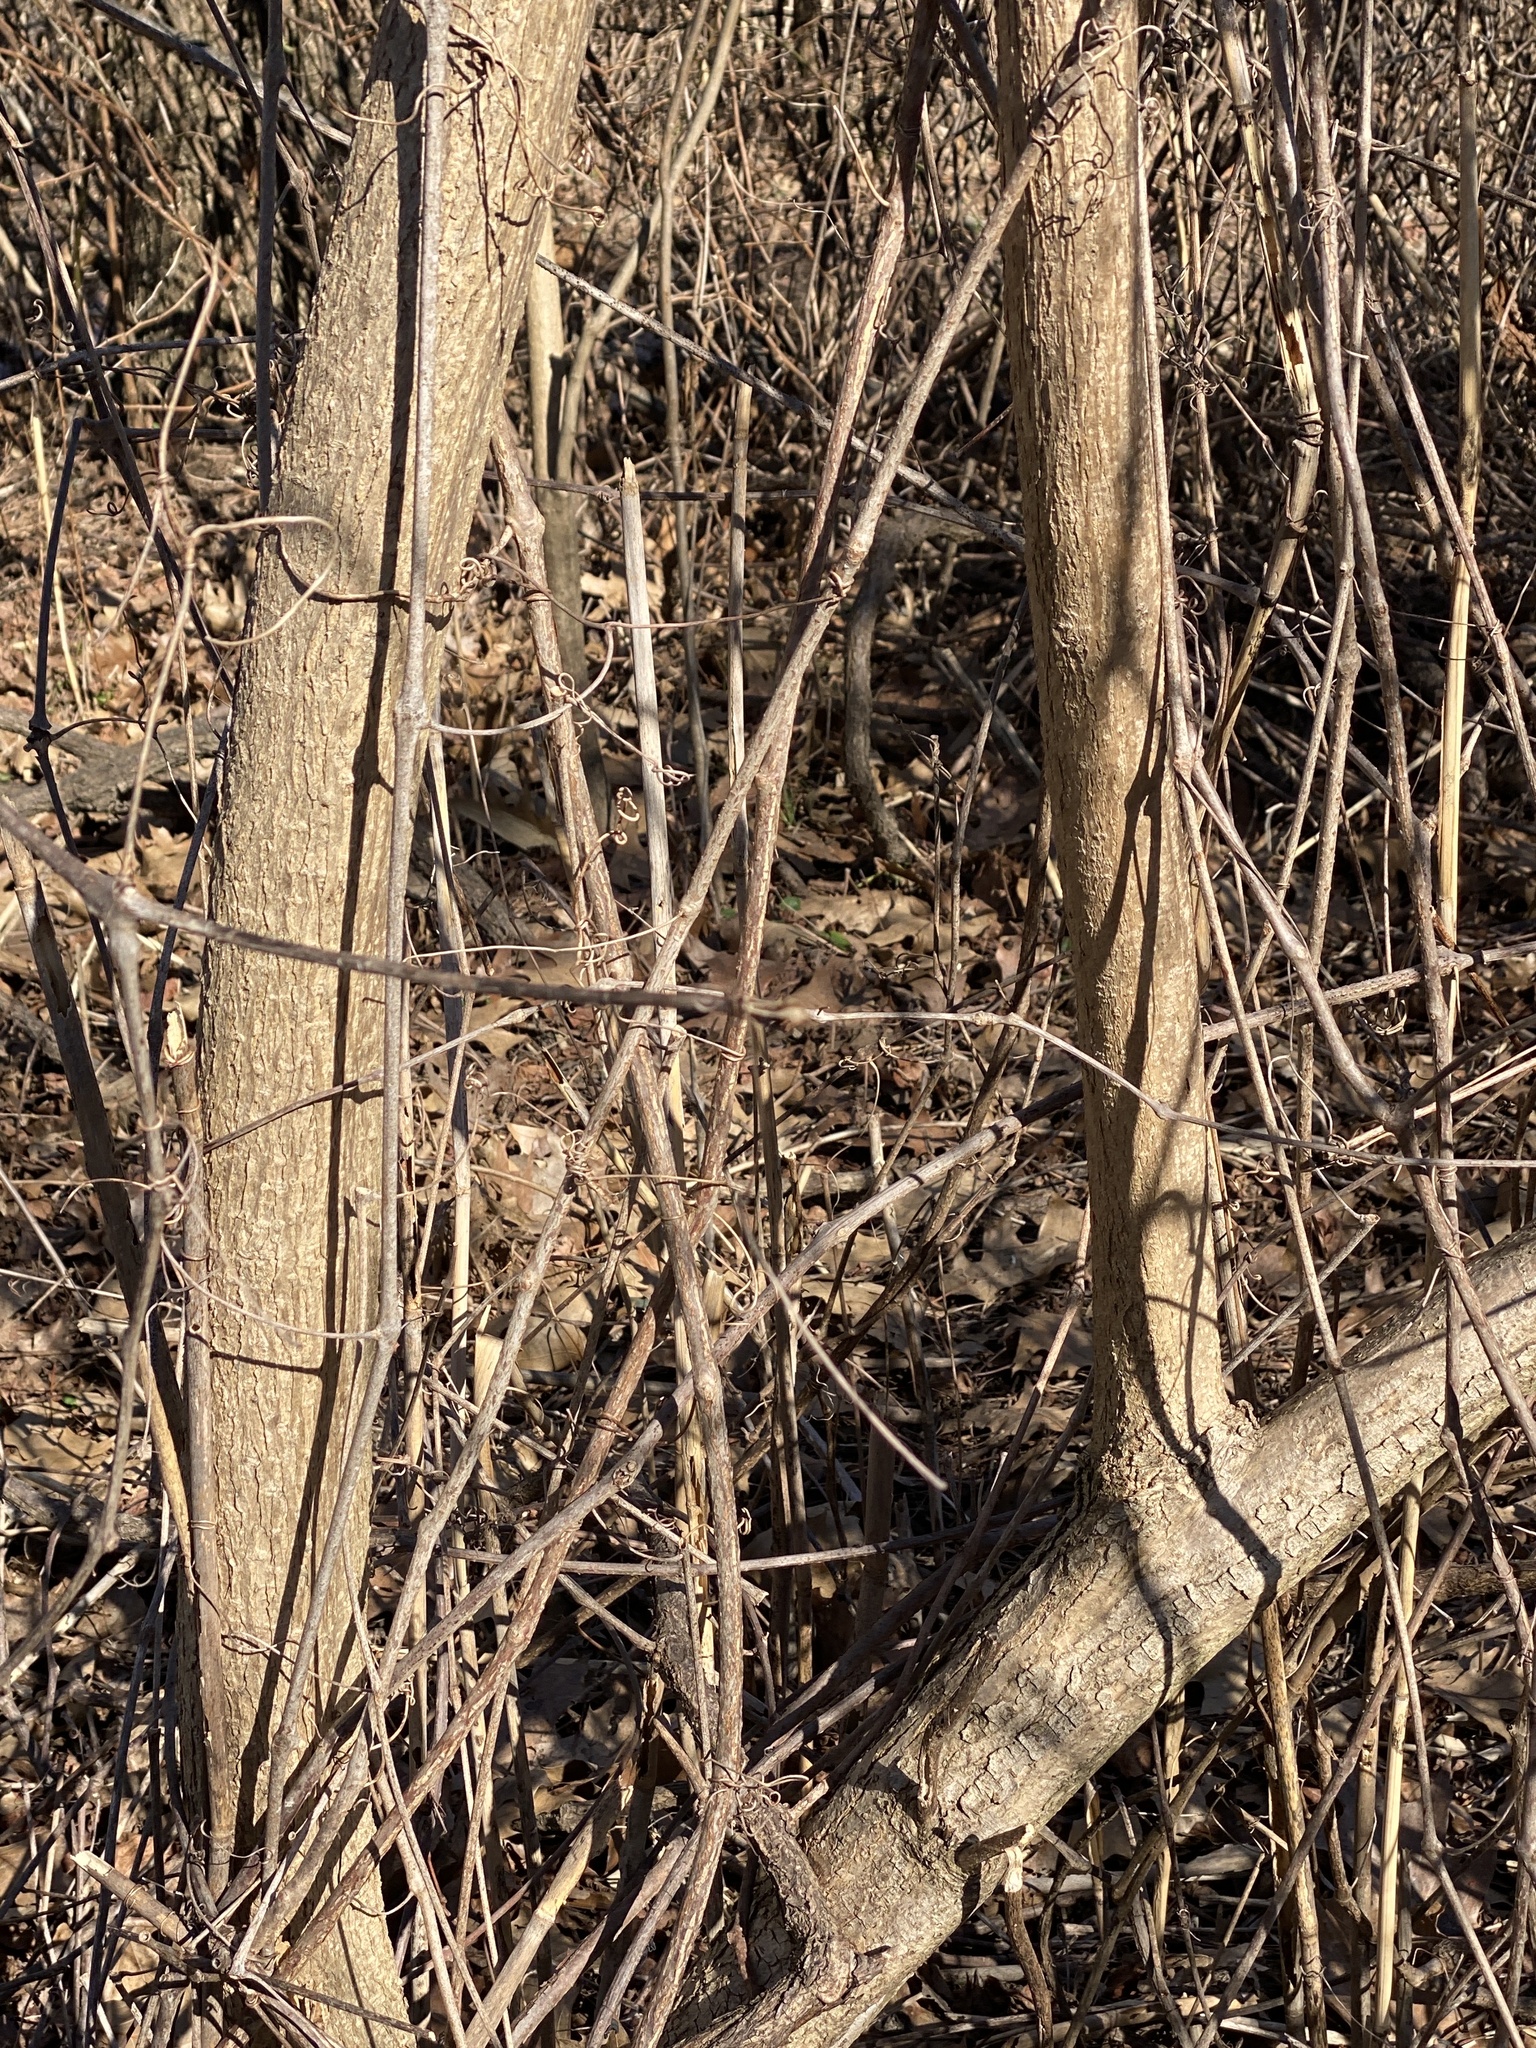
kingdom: Plantae
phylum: Tracheophyta
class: Magnoliopsida
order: Lamiales
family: Bignoniaceae
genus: Catalpa
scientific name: Catalpa
